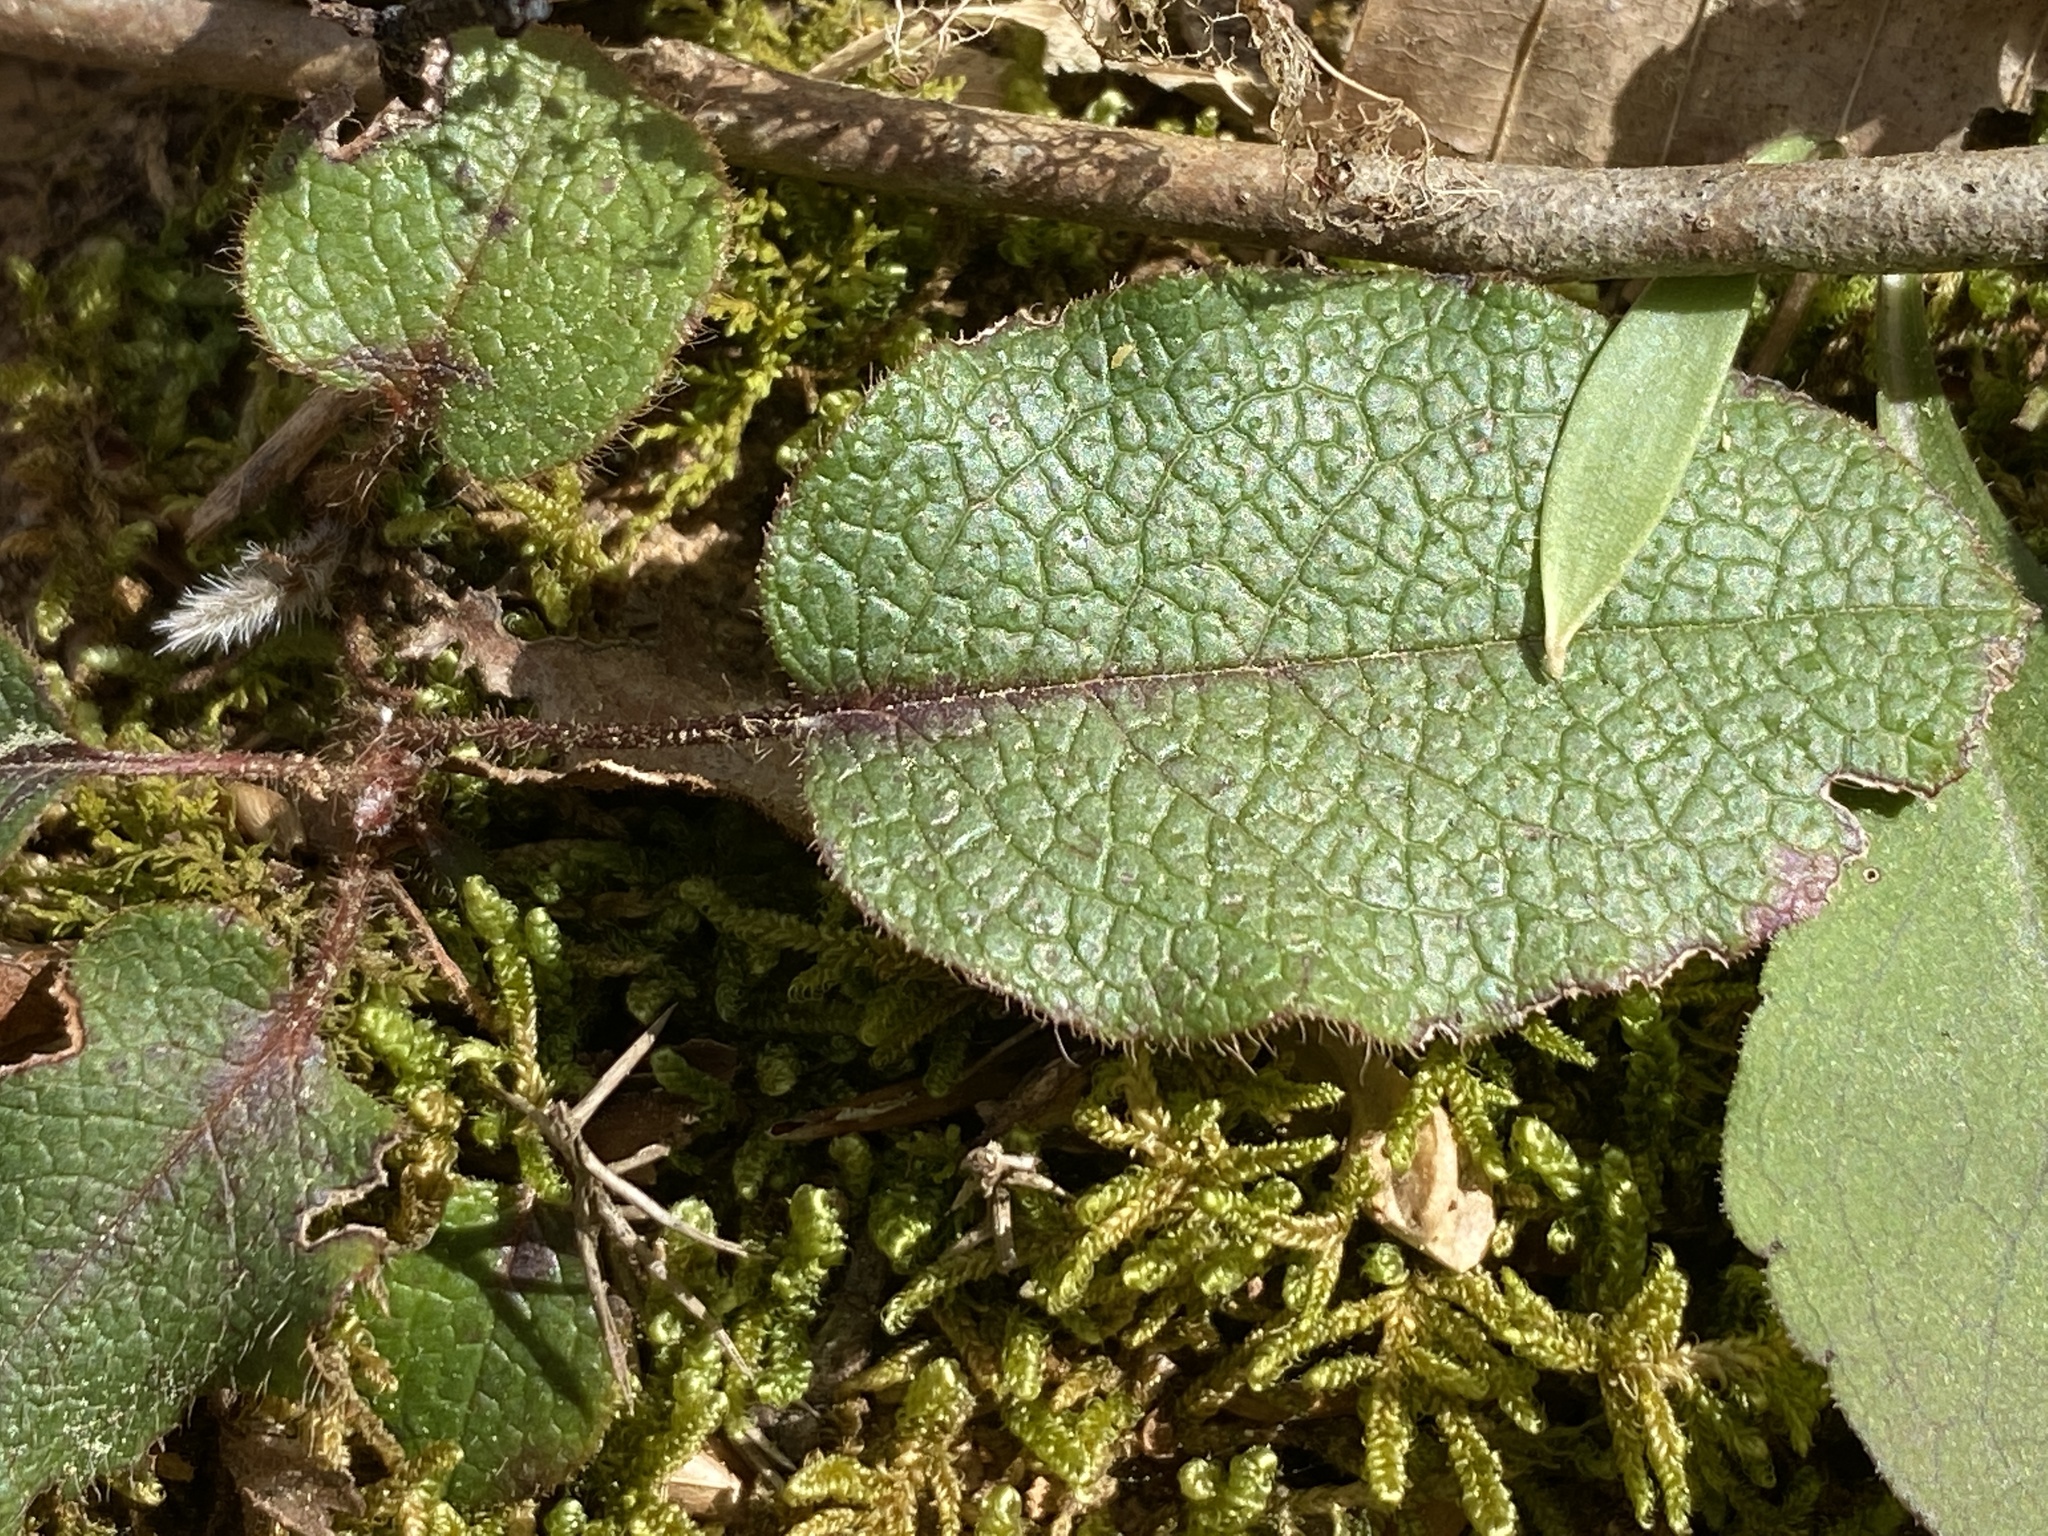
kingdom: Plantae
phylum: Tracheophyta
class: Magnoliopsida
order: Ericales
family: Ericaceae
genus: Epigaea
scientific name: Epigaea repens
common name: Gravelroot
